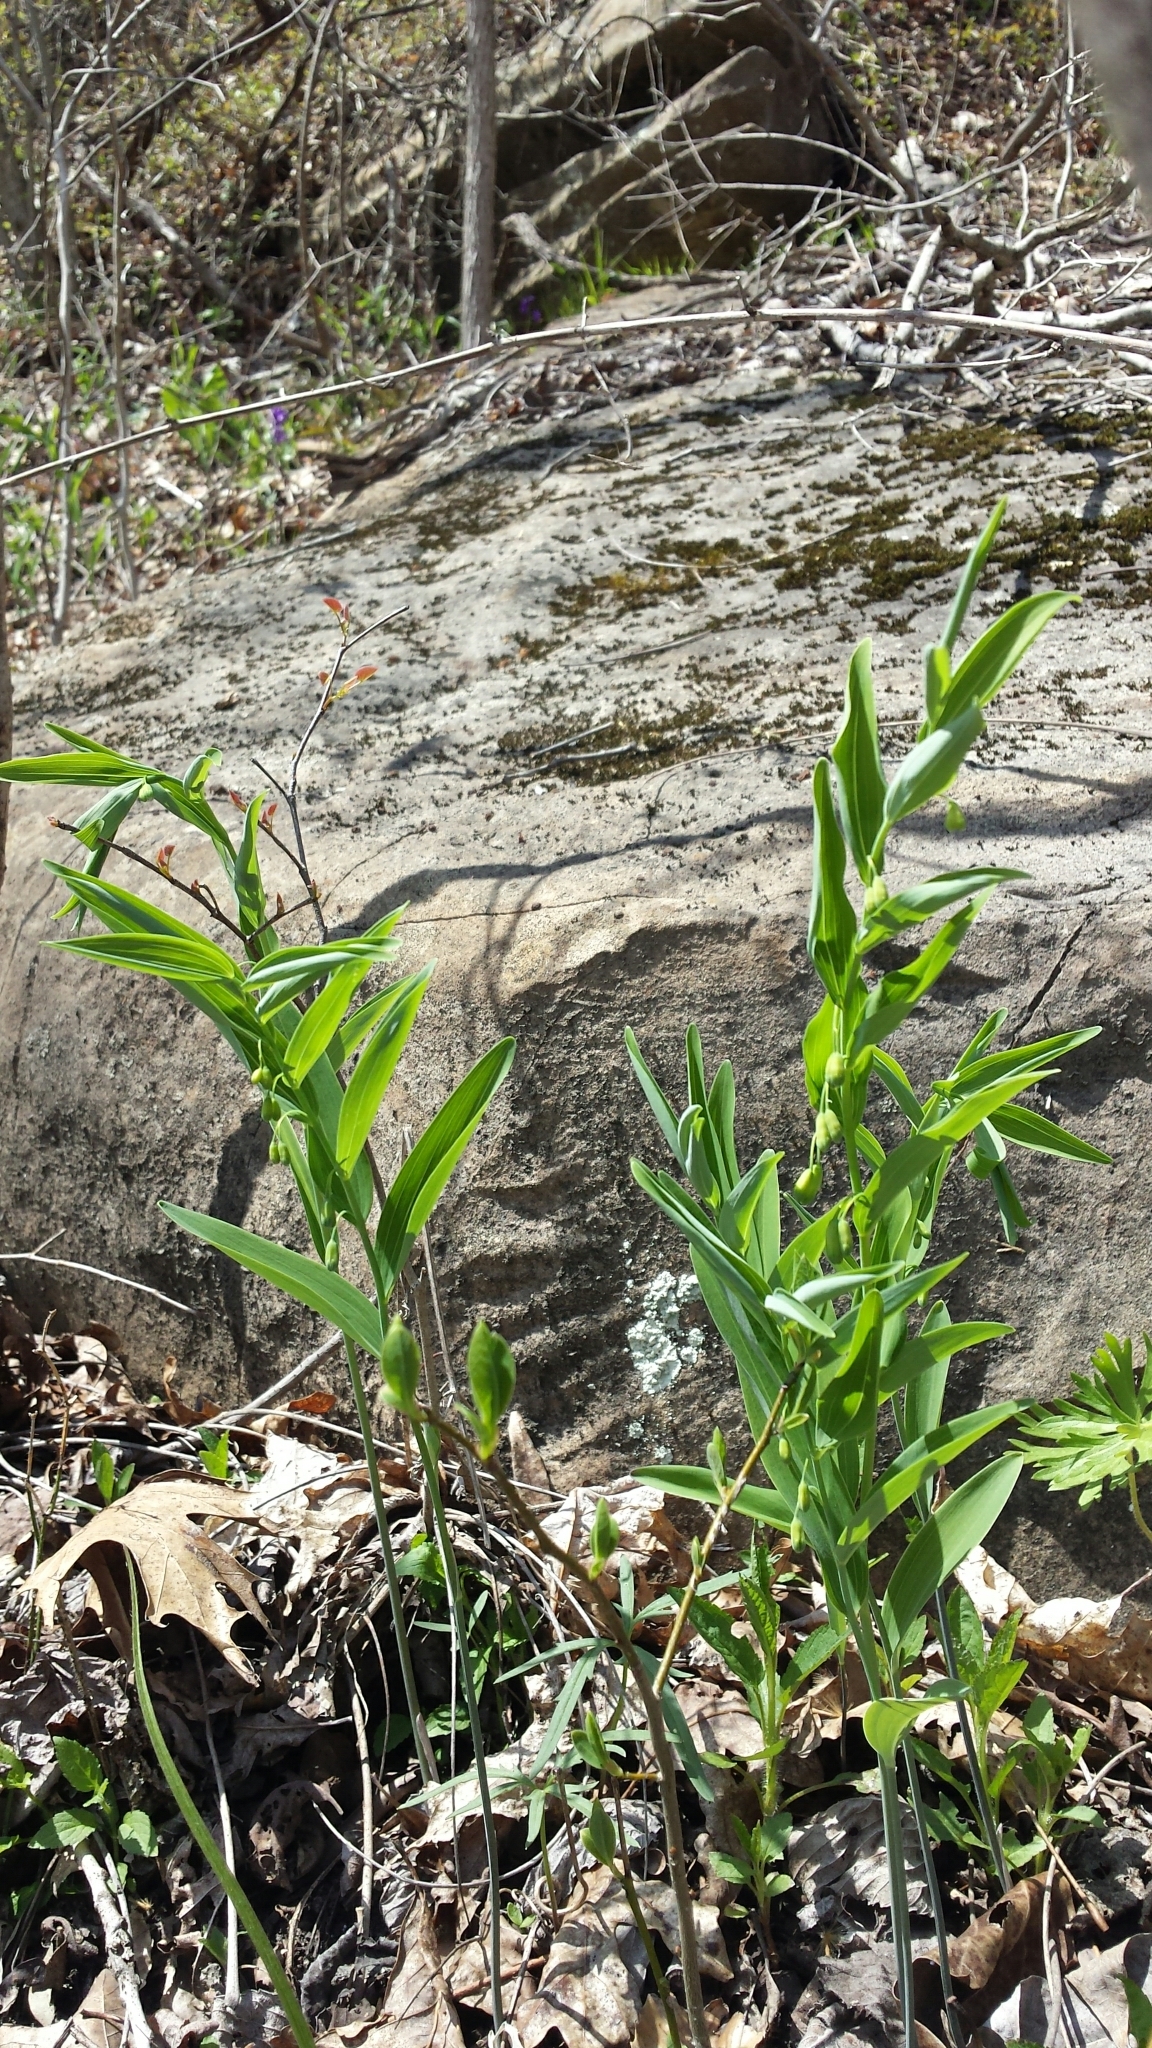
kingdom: Plantae
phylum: Tracheophyta
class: Liliopsida
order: Asparagales
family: Asparagaceae
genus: Polygonatum
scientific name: Polygonatum biflorum
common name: American solomon's-seal
